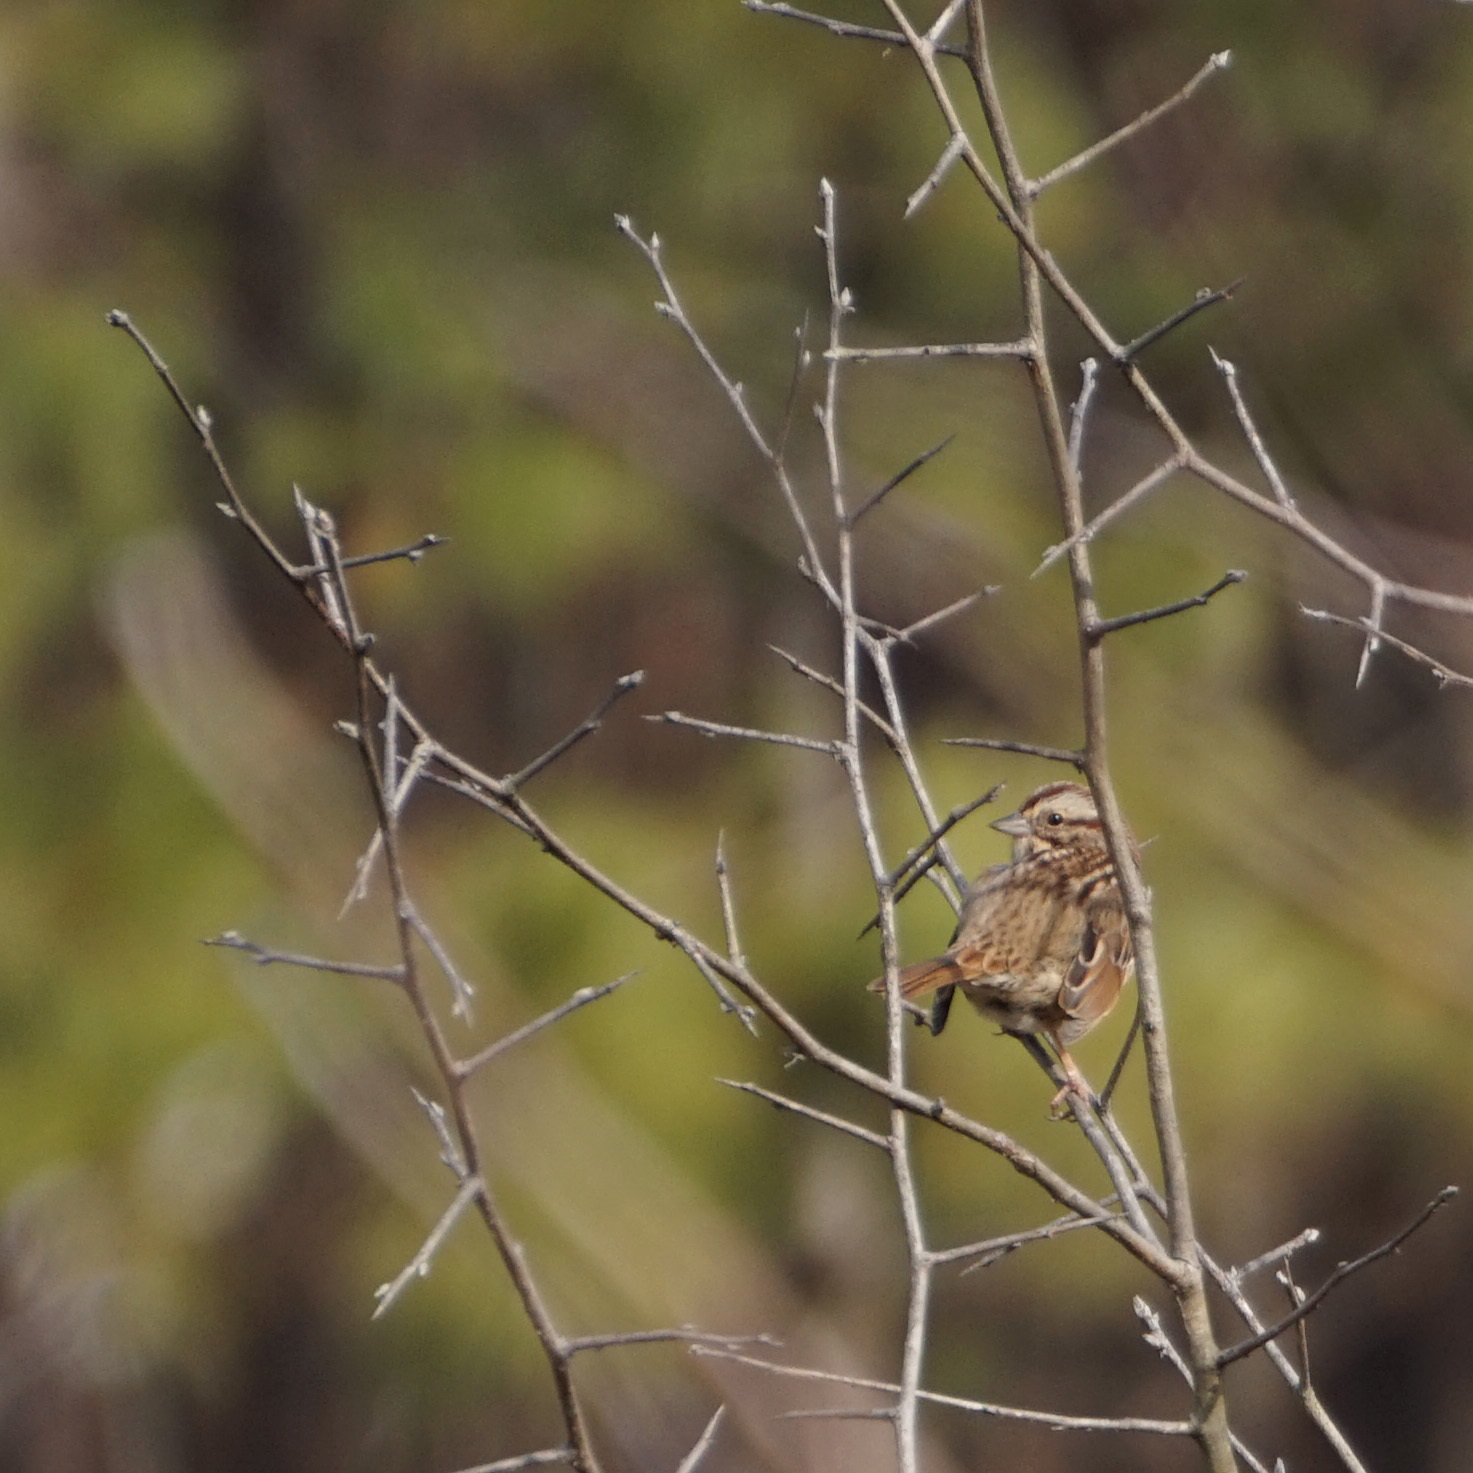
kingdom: Animalia
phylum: Chordata
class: Aves
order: Passeriformes
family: Passerellidae
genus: Melospiza
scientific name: Melospiza melodia
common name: Song sparrow
